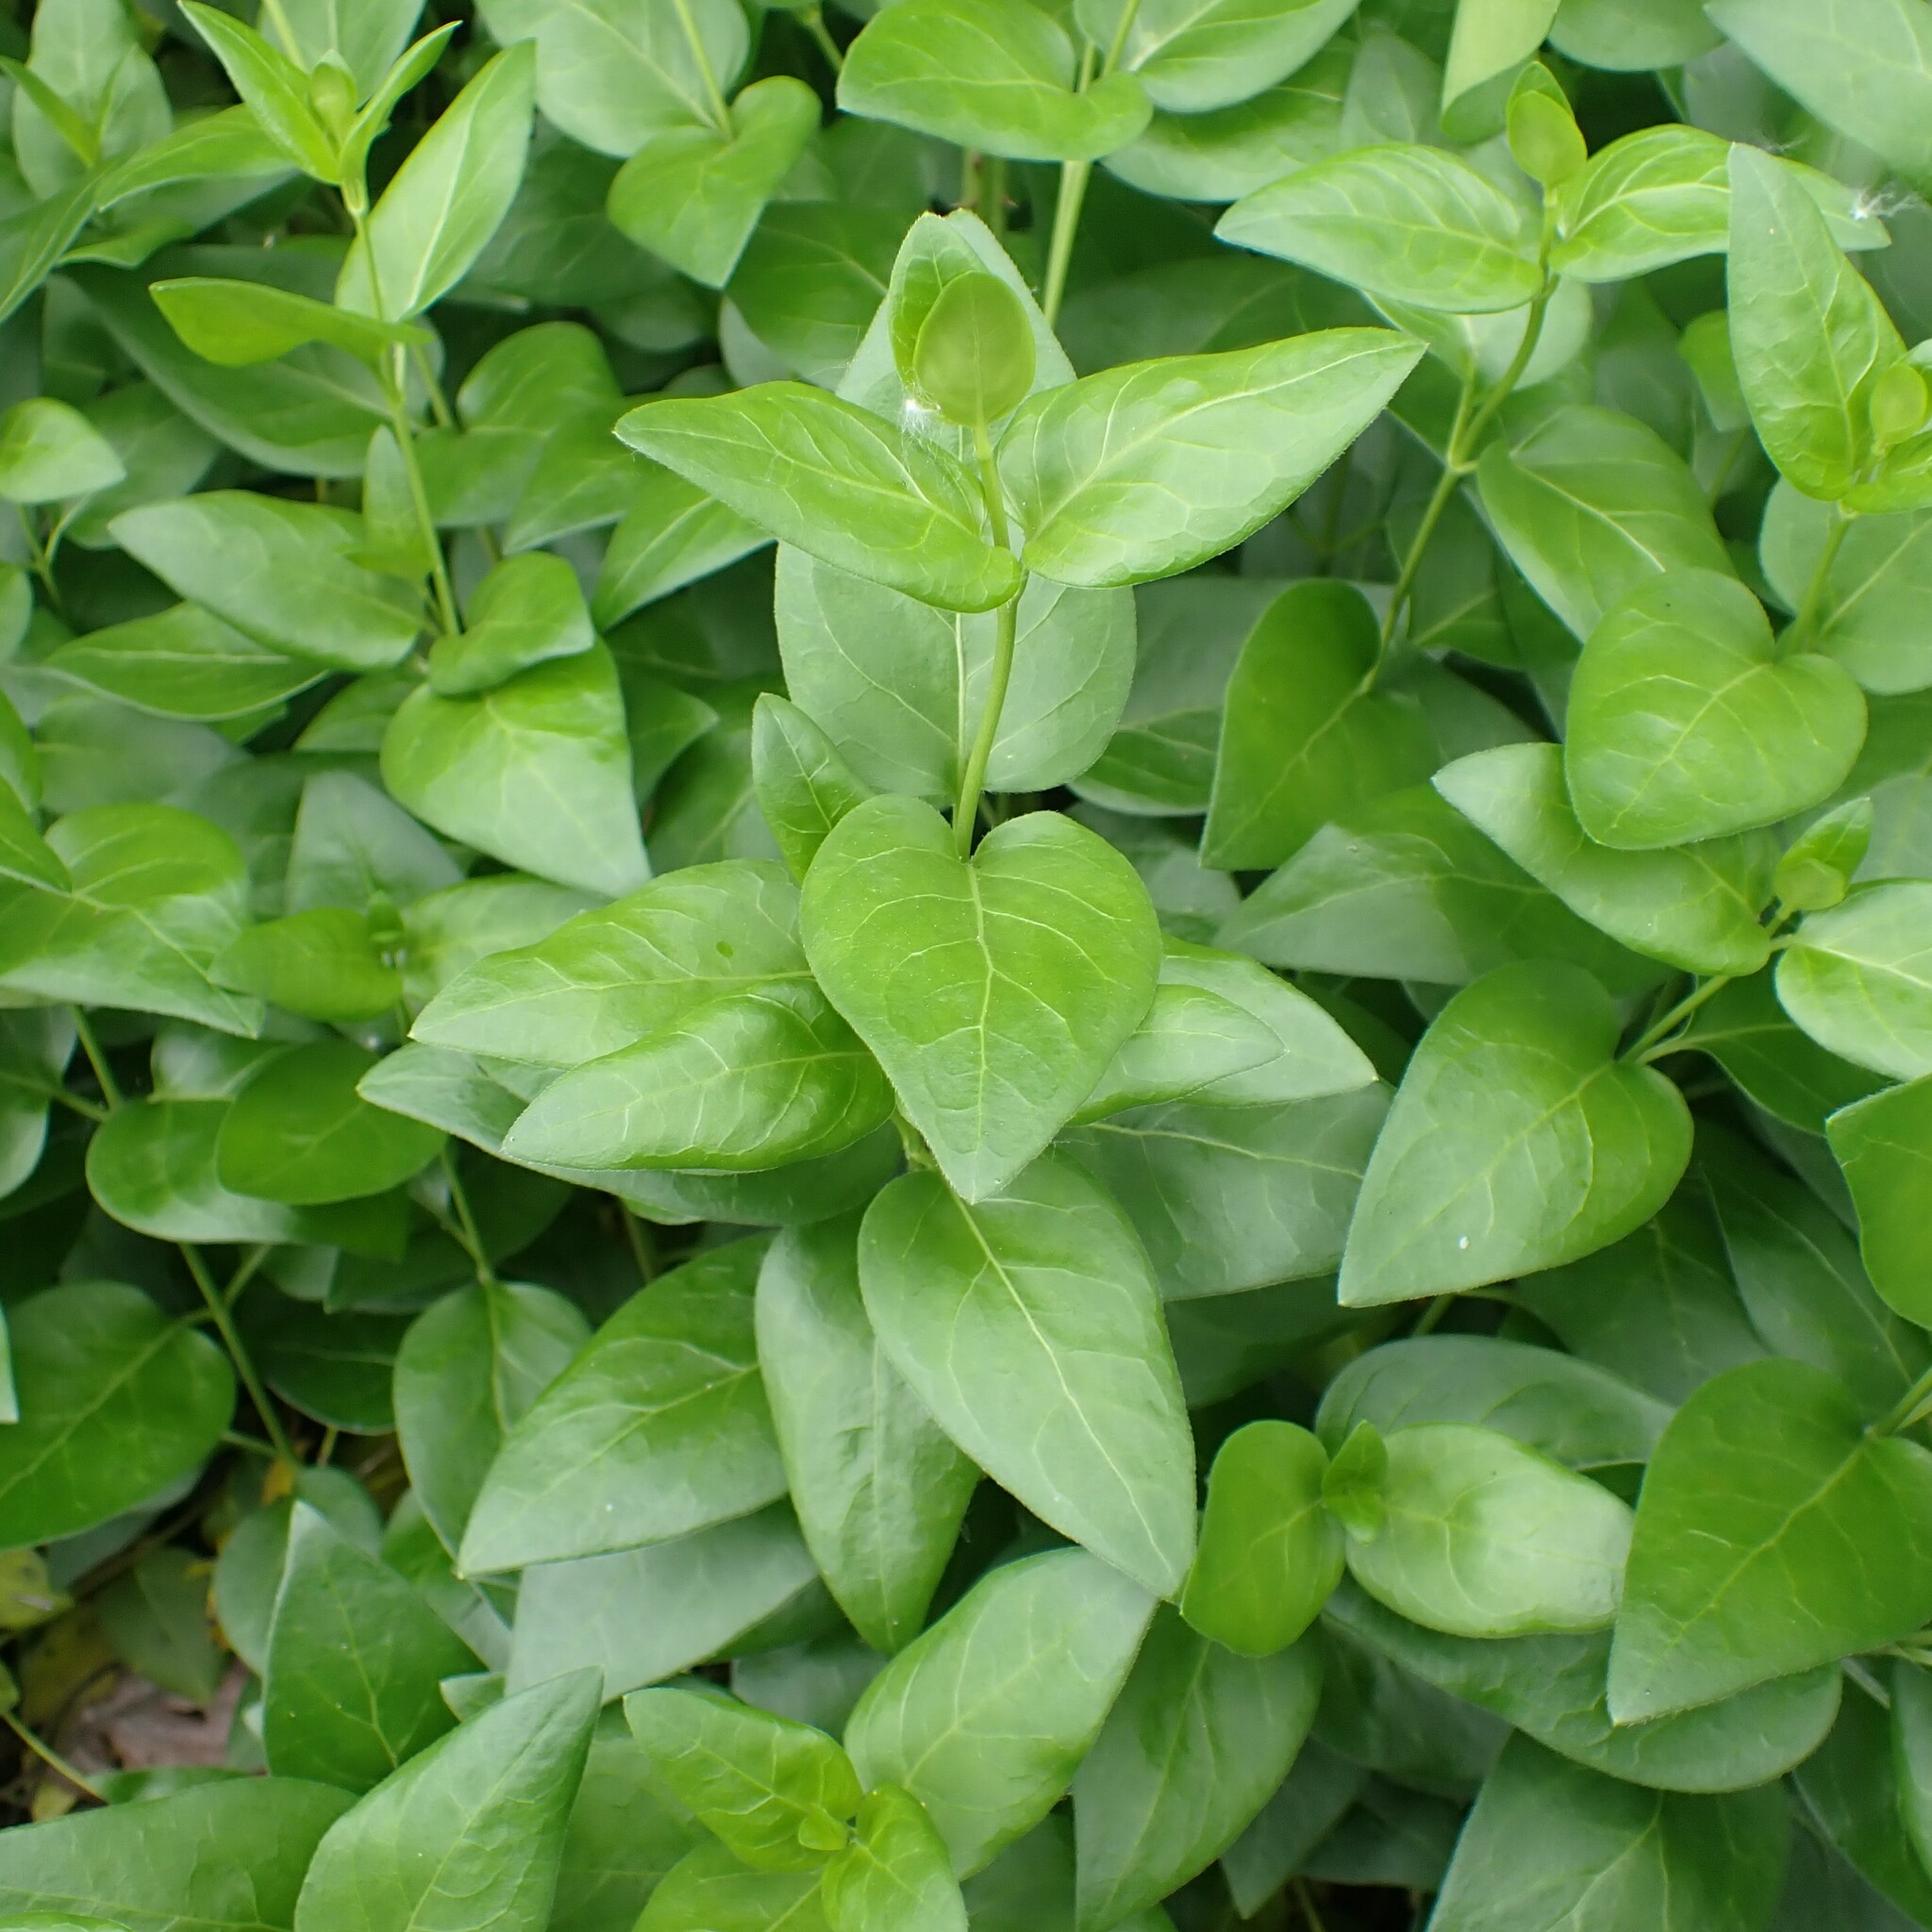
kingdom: Plantae
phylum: Tracheophyta
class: Magnoliopsida
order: Gentianales
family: Apocynaceae
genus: Vinca
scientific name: Vinca major
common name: Greater periwinkle
